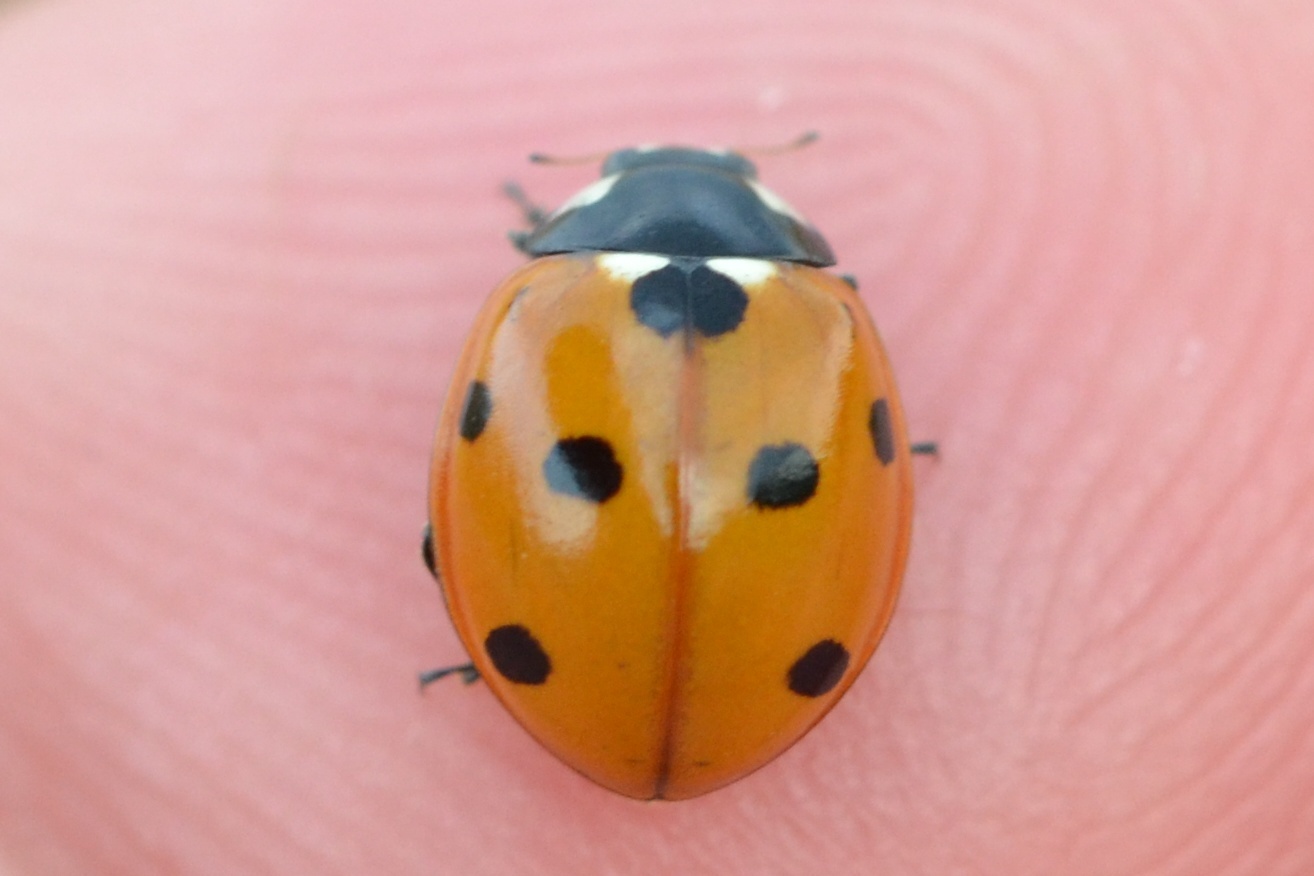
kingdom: Animalia
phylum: Arthropoda
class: Insecta
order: Coleoptera
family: Coccinellidae
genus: Coccinella
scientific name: Coccinella septempunctata
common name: Sevenspotted lady beetle
